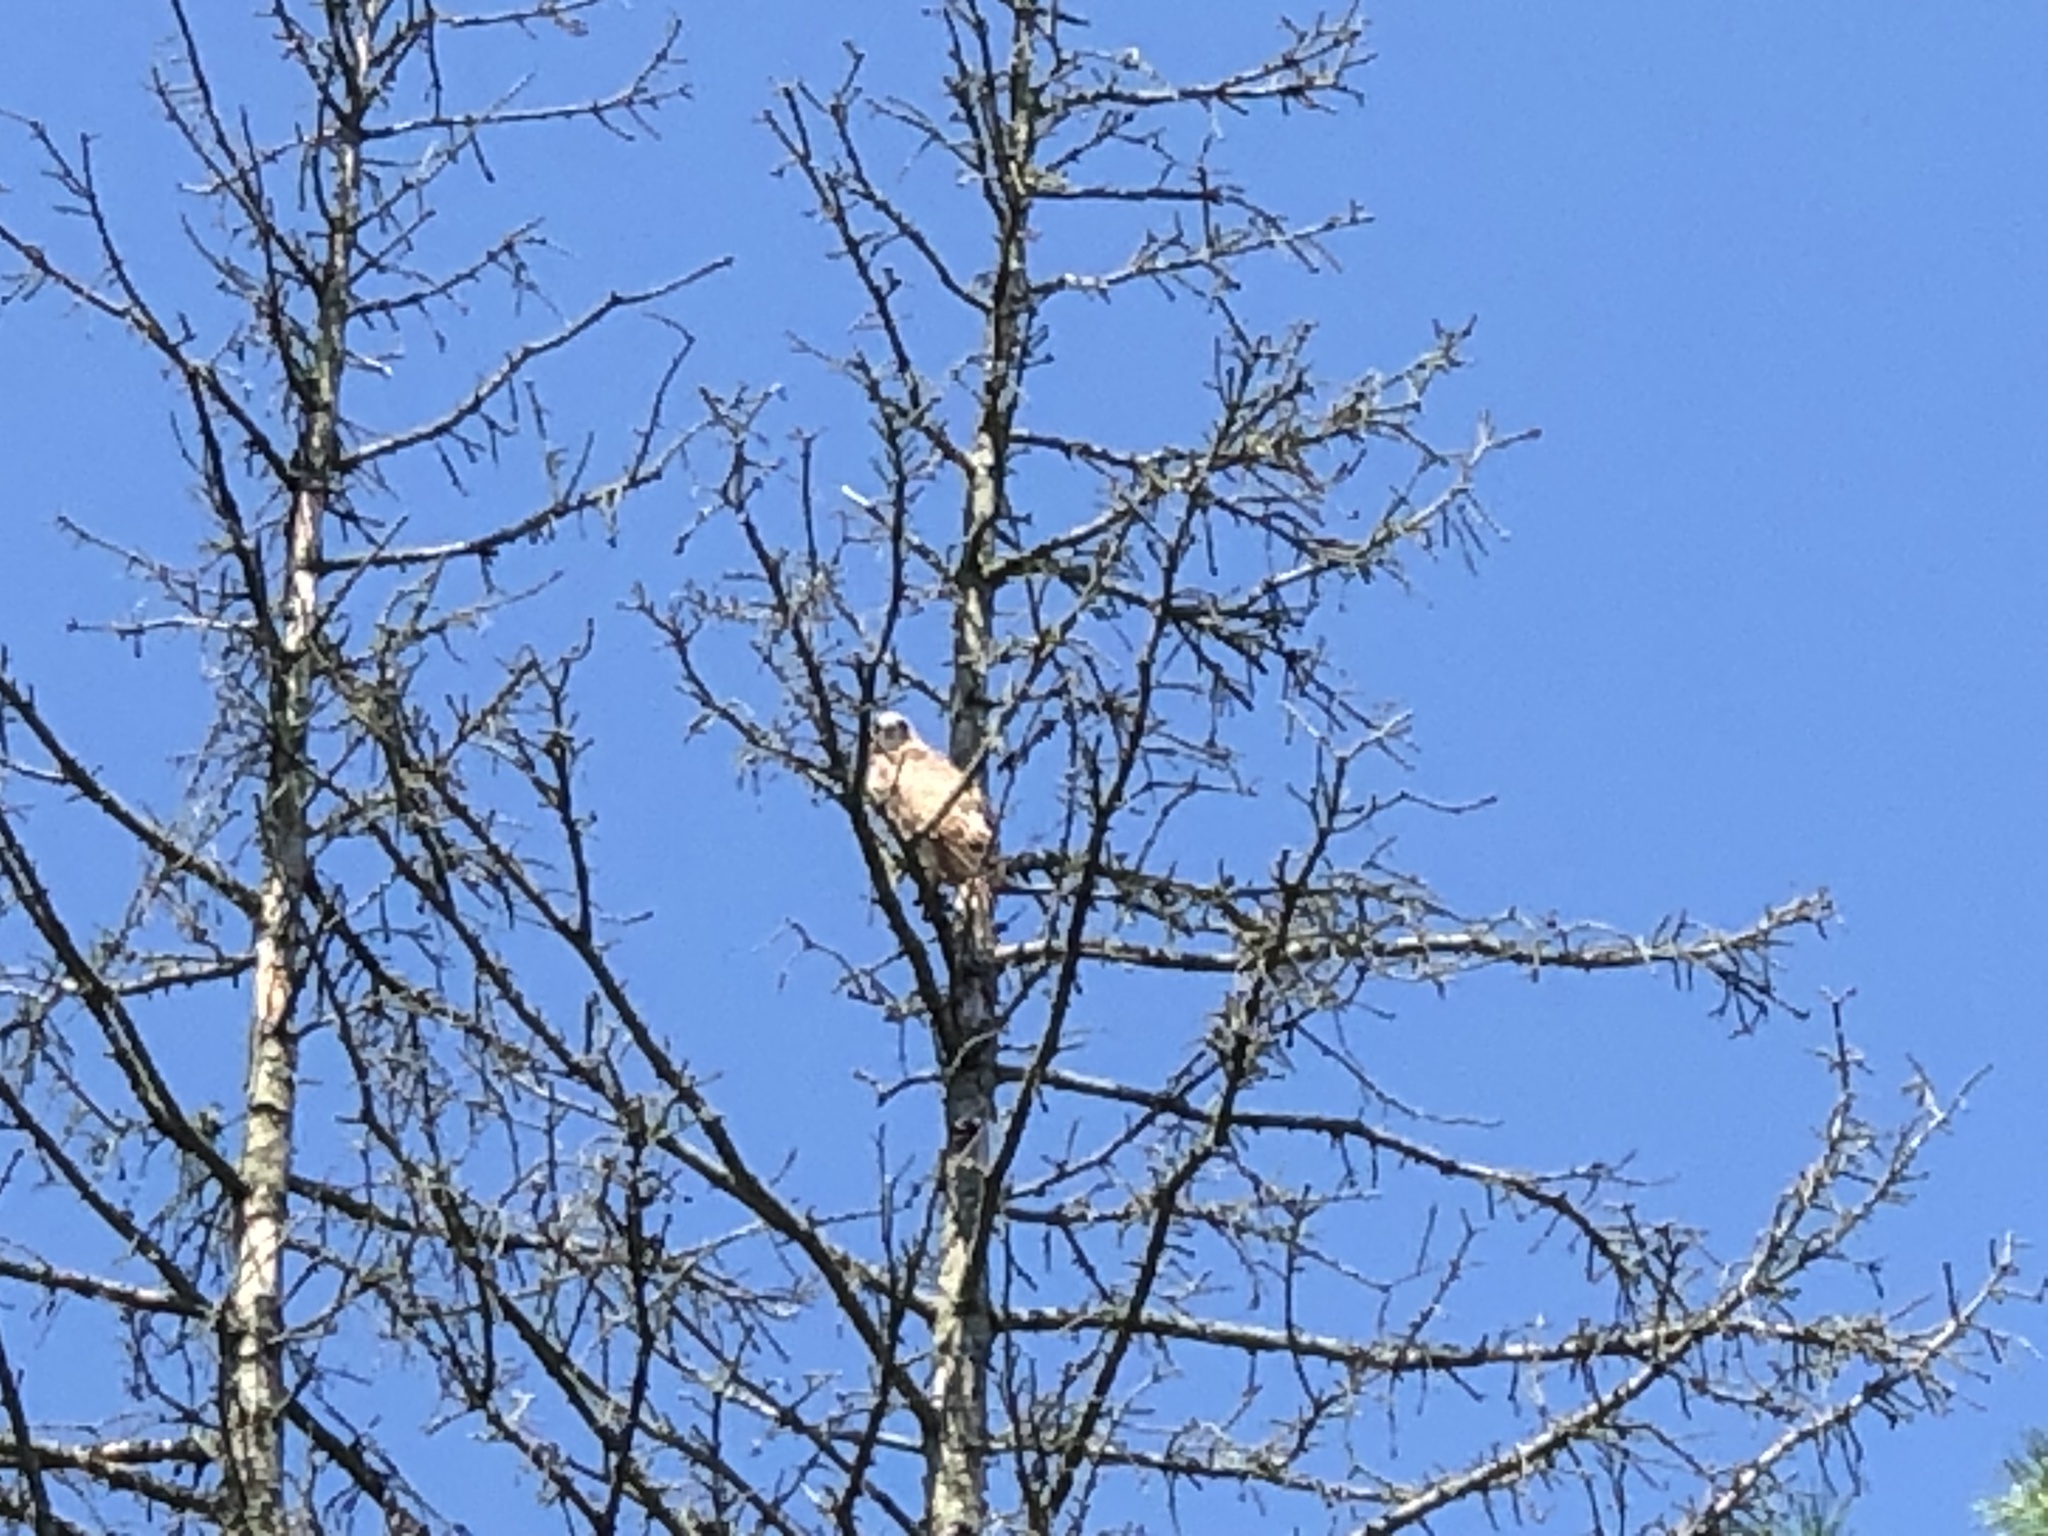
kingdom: Animalia
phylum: Chordata
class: Aves
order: Accipitriformes
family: Accipitridae
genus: Buteo
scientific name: Buteo jamaicensis
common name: Red-tailed hawk
